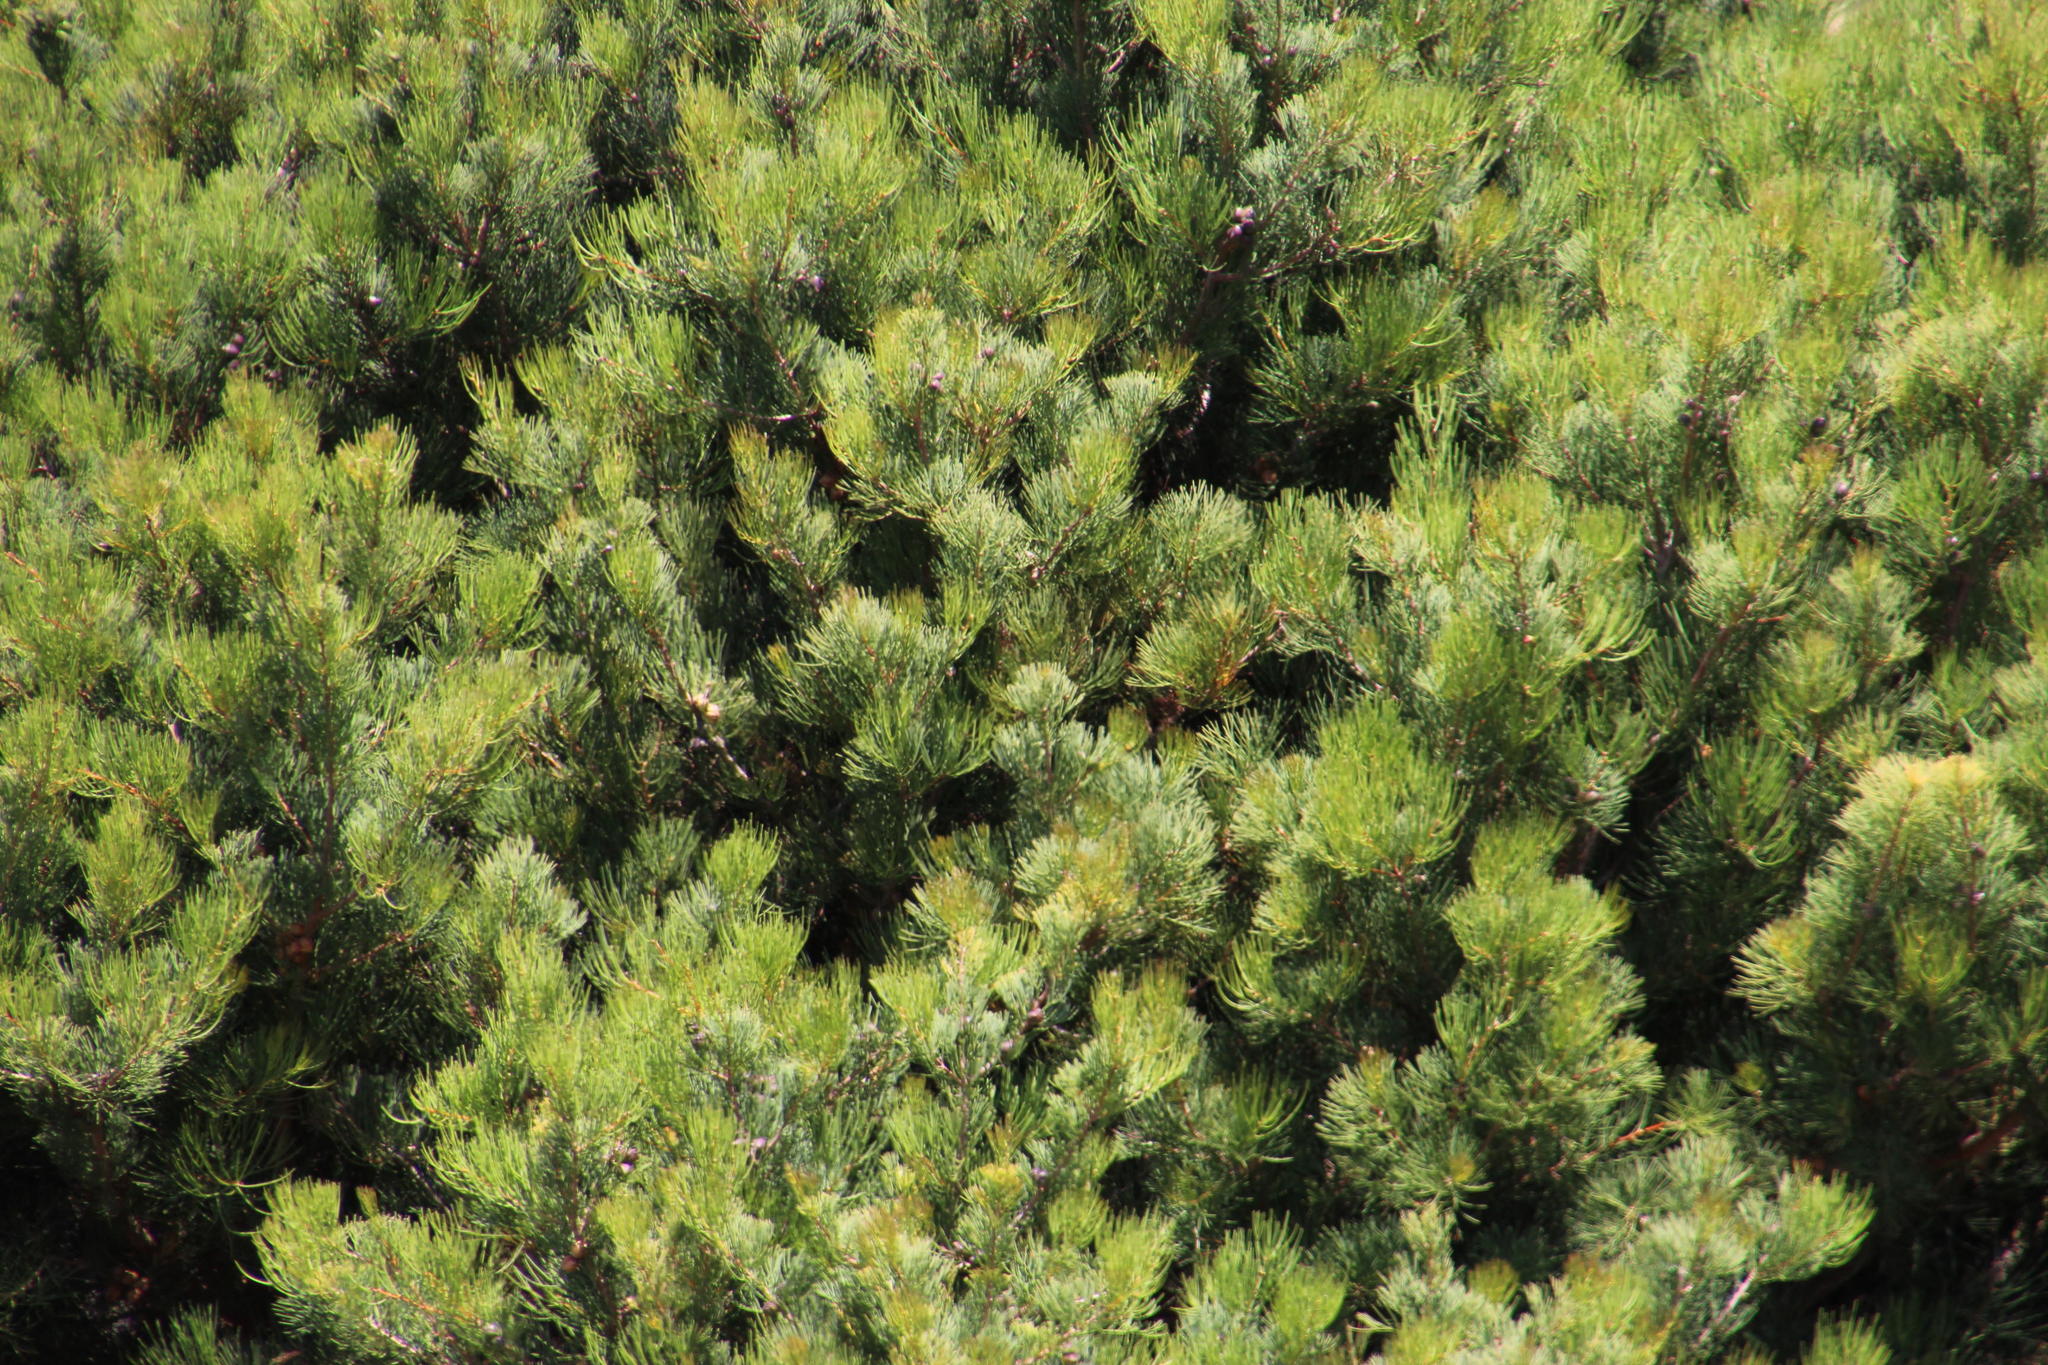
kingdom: Plantae
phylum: Tracheophyta
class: Magnoliopsida
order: Proteales
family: Proteaceae
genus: Hakea
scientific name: Hakea drupacea
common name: Sweet hakea
